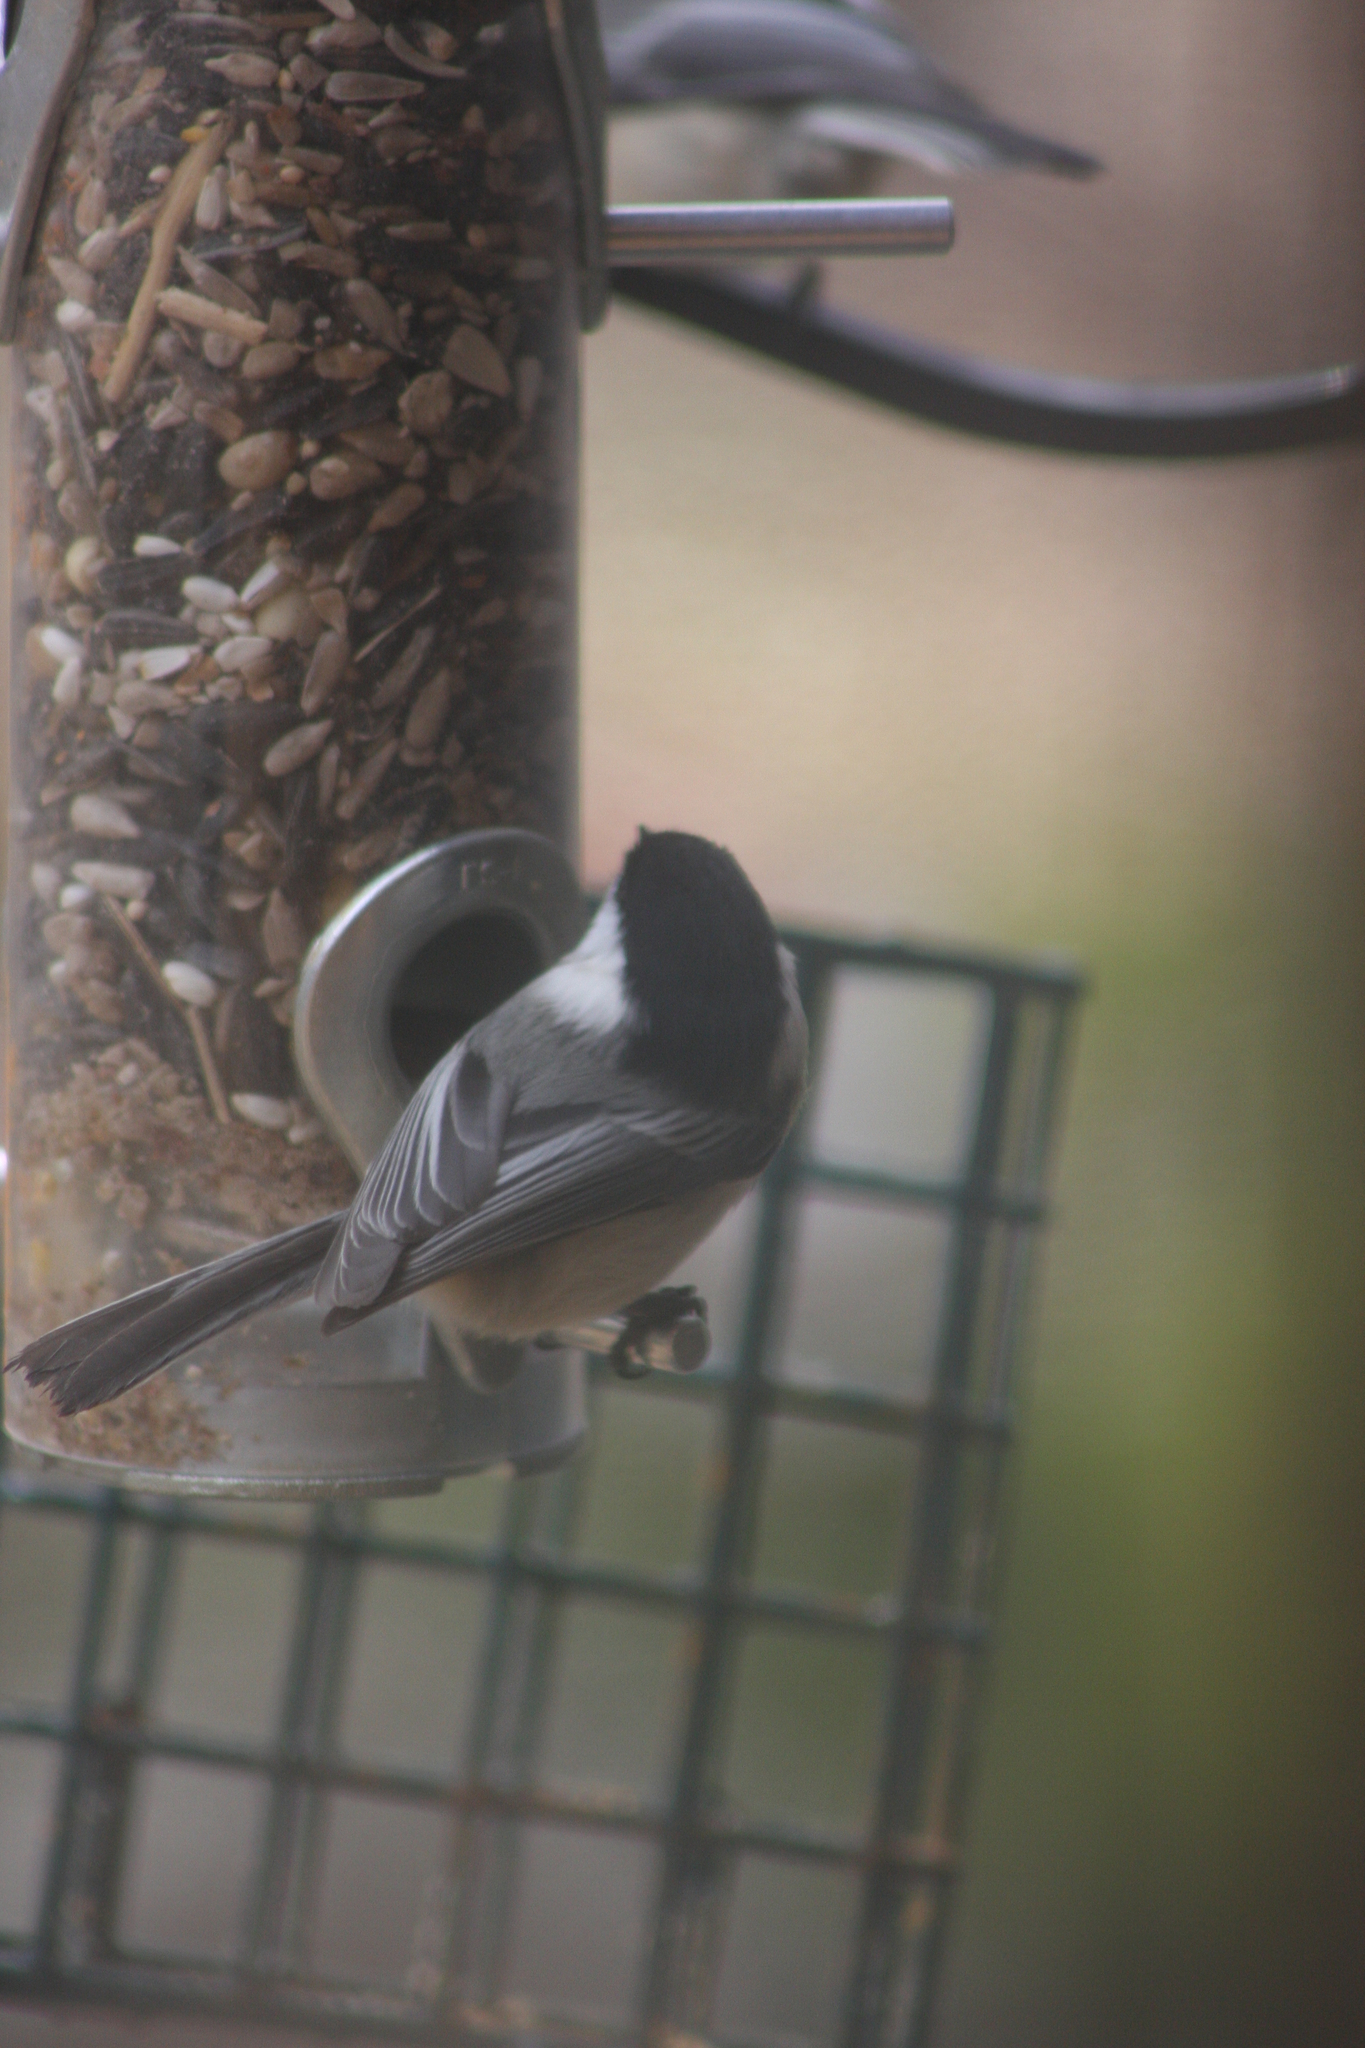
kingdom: Animalia
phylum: Chordata
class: Aves
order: Passeriformes
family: Paridae
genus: Poecile
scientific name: Poecile atricapillus
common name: Black-capped chickadee
